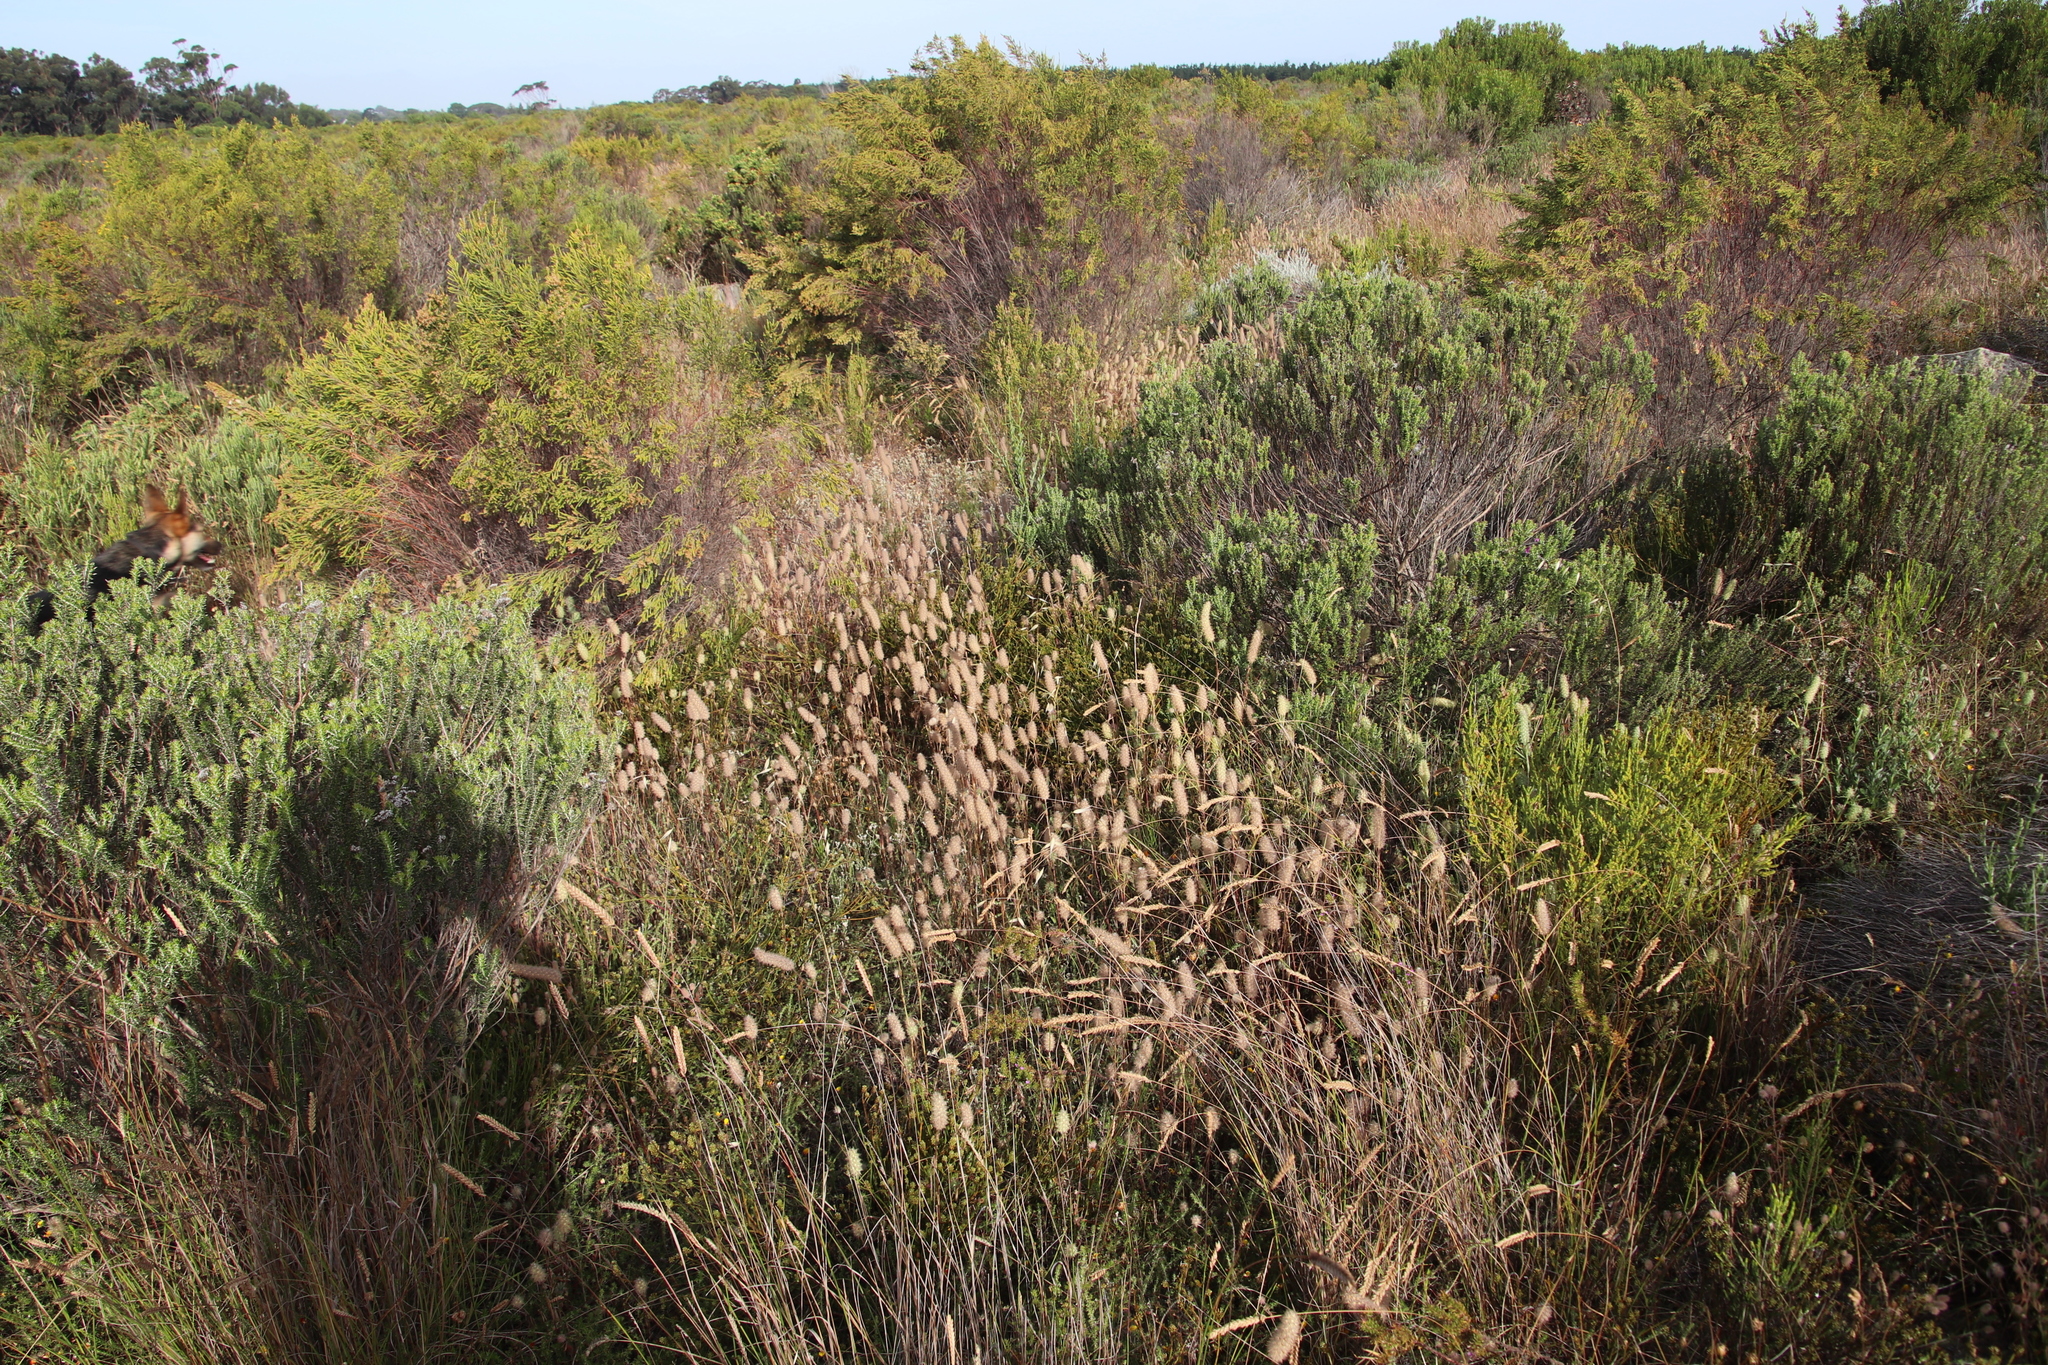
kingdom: Plantae
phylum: Tracheophyta
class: Liliopsida
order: Poales
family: Poaceae
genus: Lagurus
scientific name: Lagurus ovatus
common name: Hare's-tail
